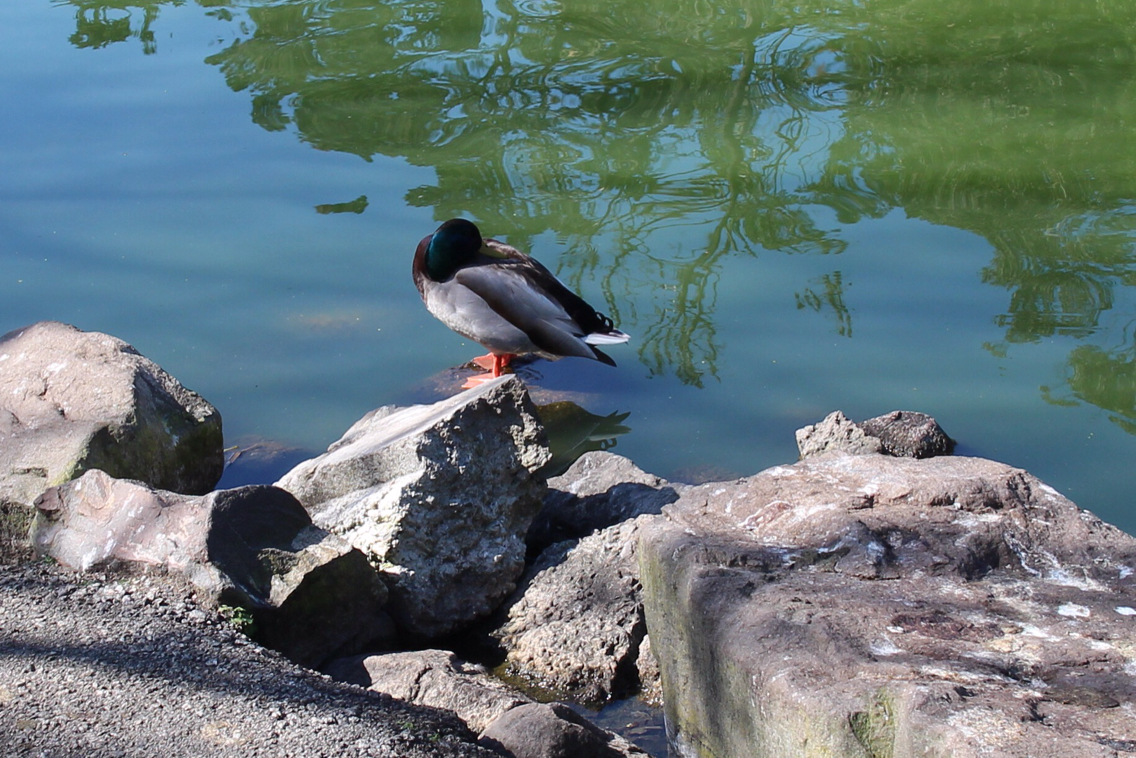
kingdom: Animalia
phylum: Chordata
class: Aves
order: Anseriformes
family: Anatidae
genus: Anas
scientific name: Anas platyrhynchos
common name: Mallard
